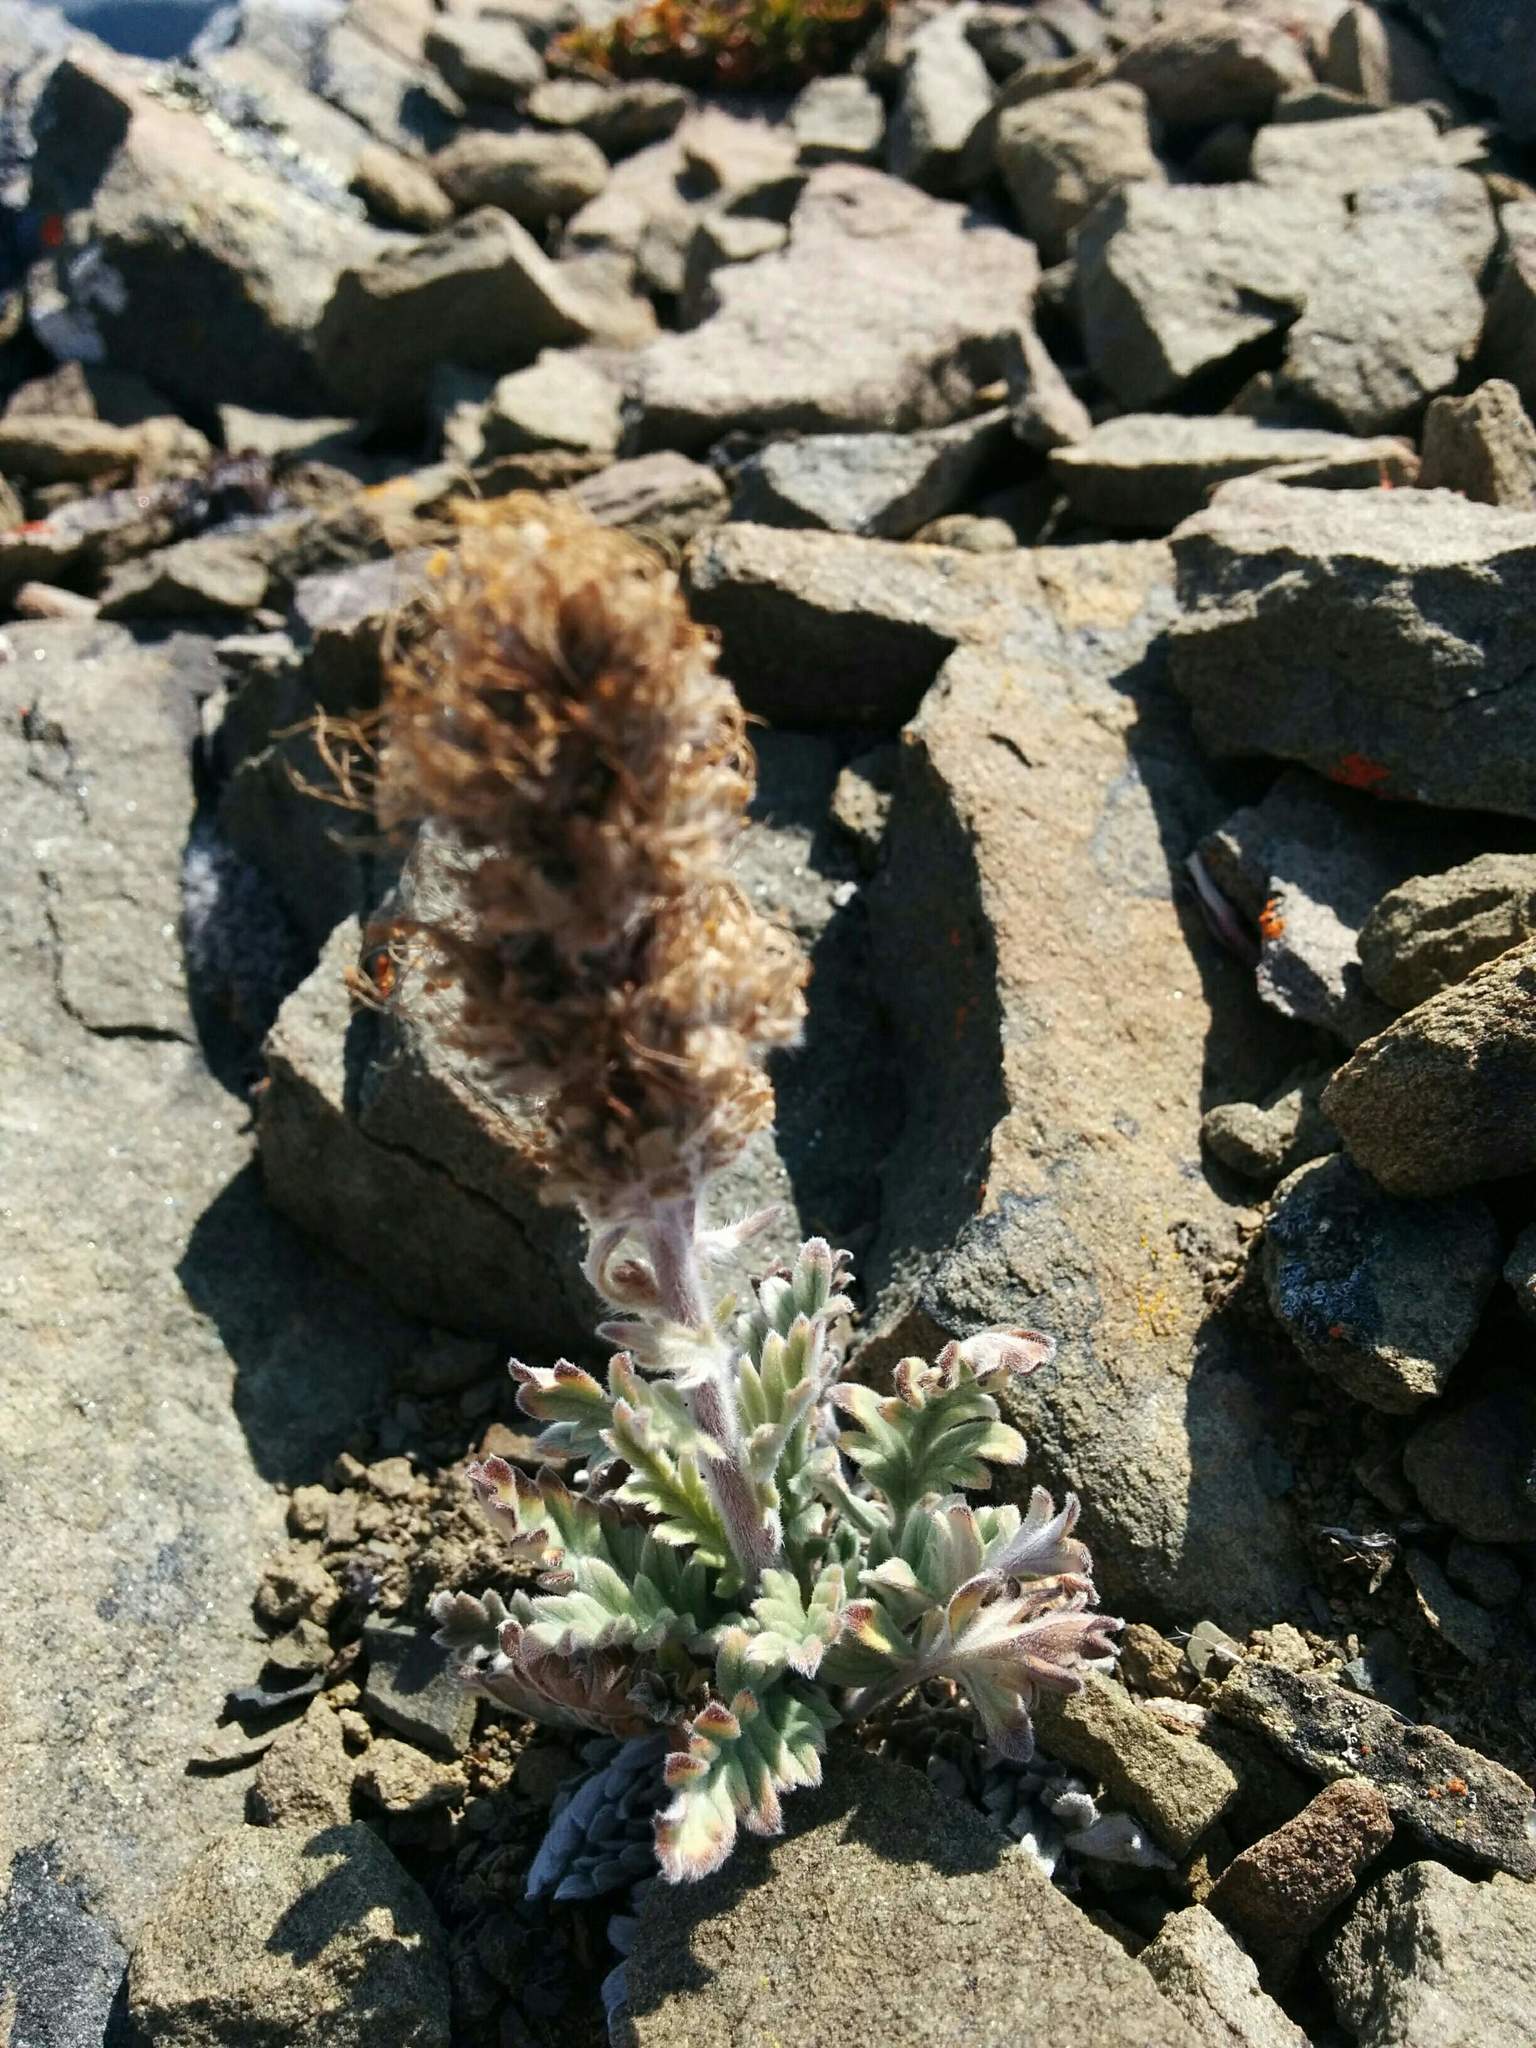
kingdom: Plantae
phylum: Tracheophyta
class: Magnoliopsida
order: Boraginales
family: Hydrophyllaceae
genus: Phacelia
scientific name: Phacelia sericea
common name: Silky phacelia
